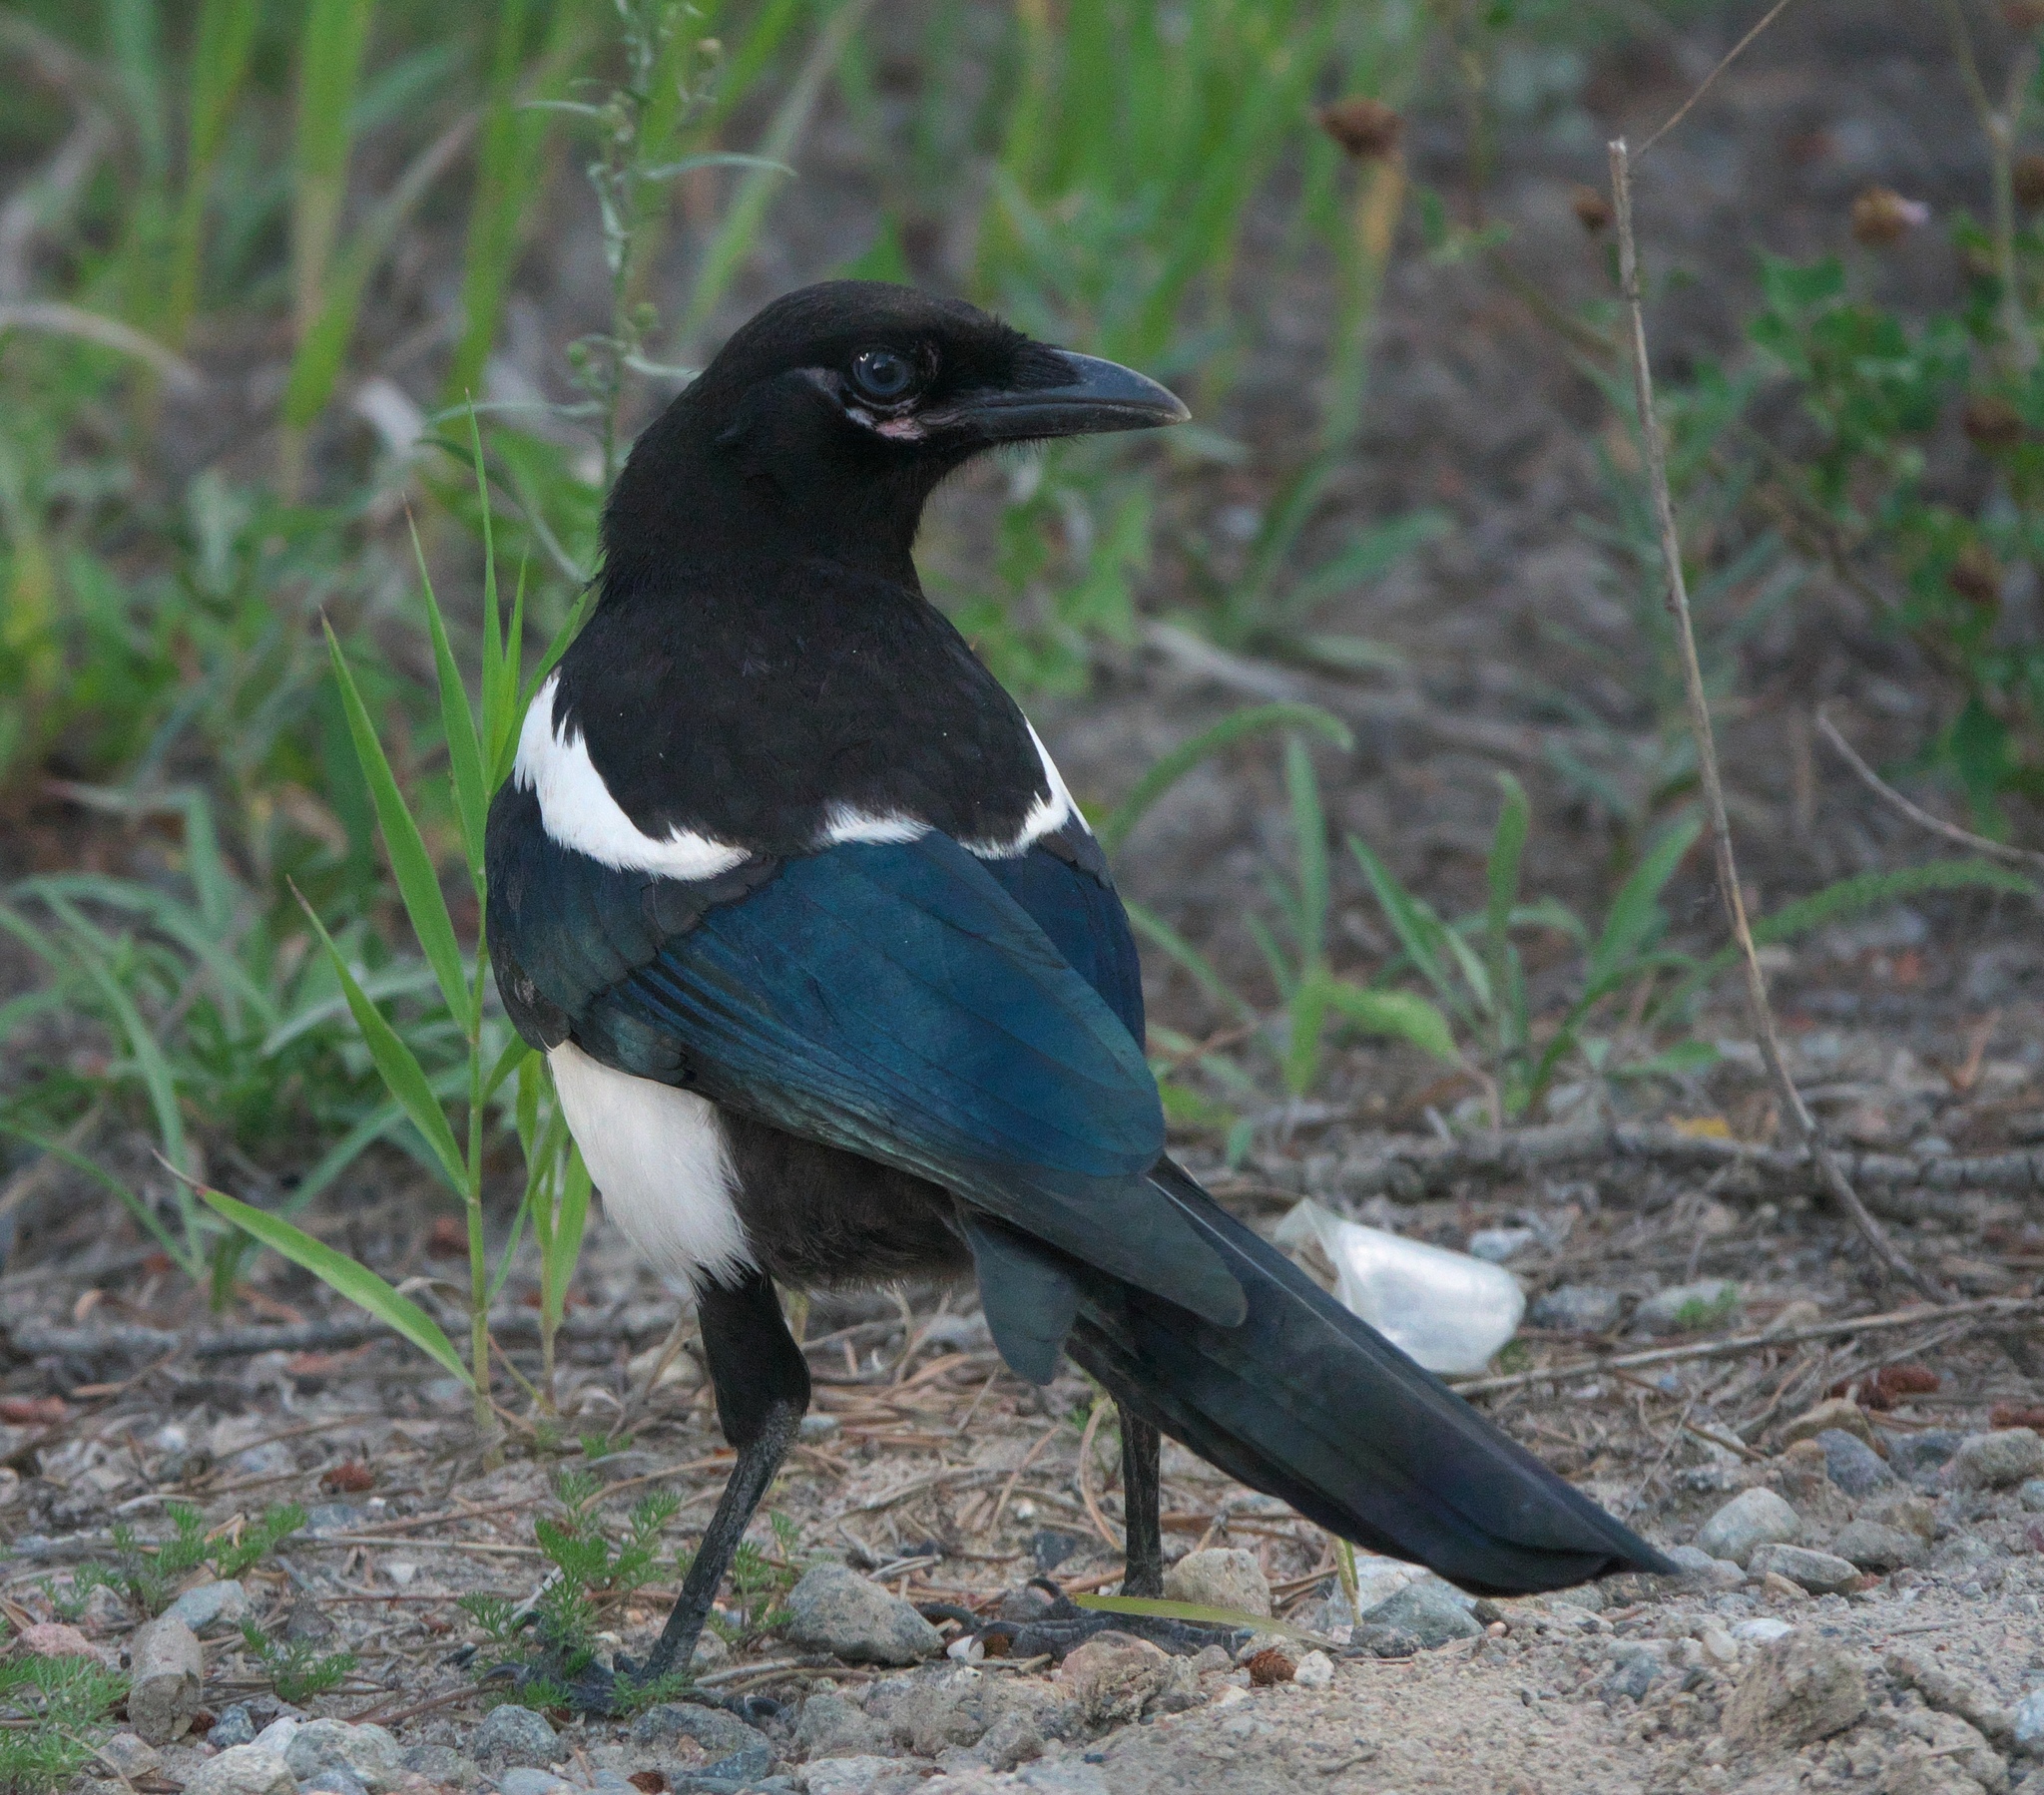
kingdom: Animalia
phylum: Chordata
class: Aves
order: Passeriformes
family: Corvidae
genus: Pica
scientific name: Pica hudsonia
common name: Black-billed magpie
